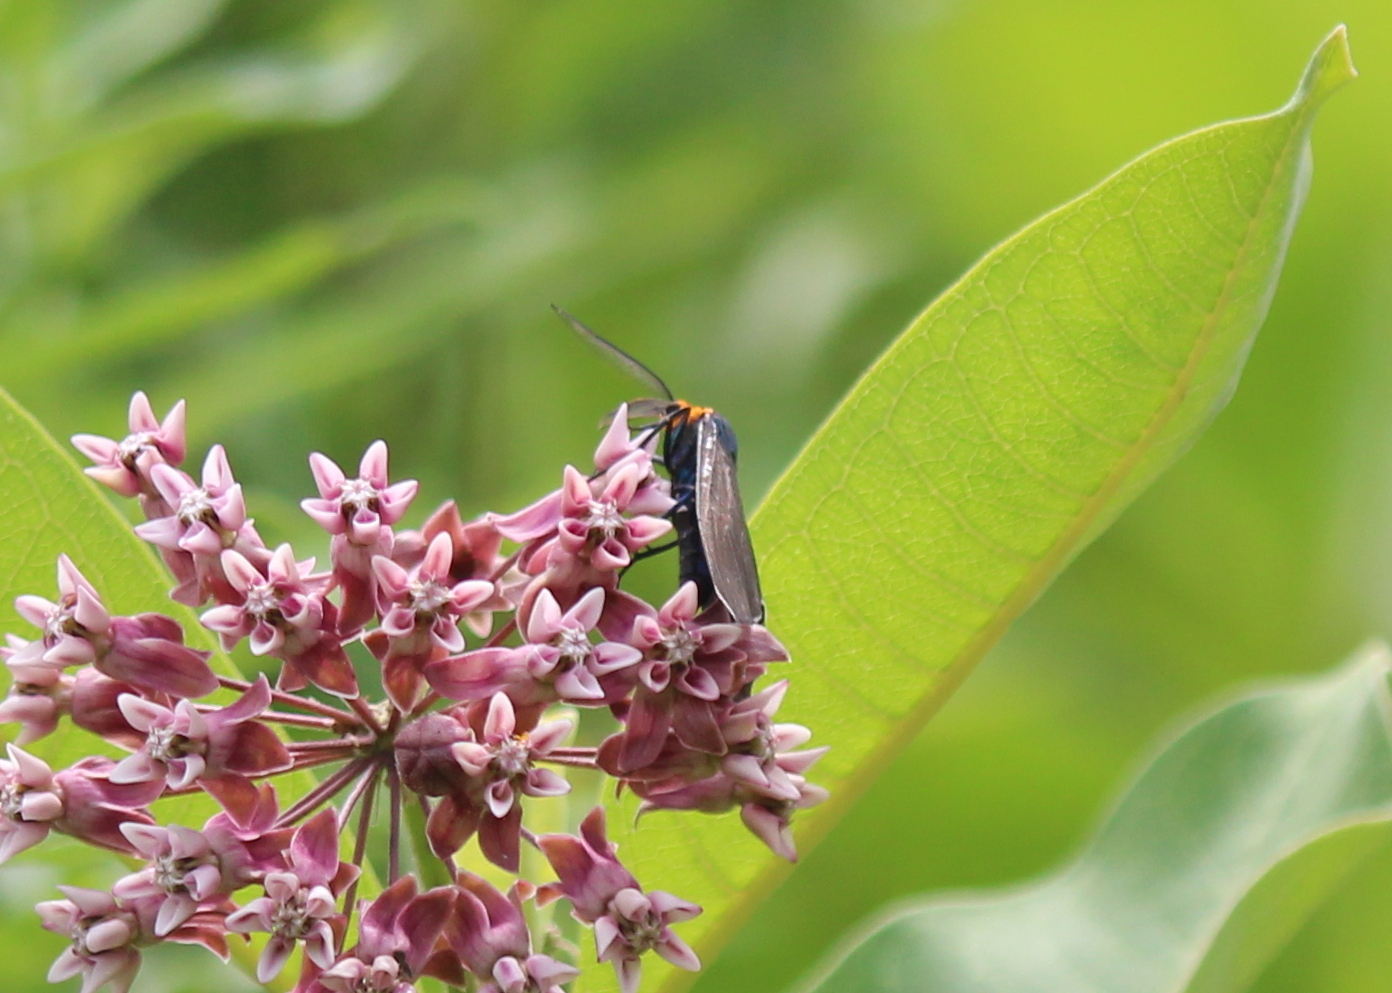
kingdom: Animalia
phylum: Arthropoda
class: Insecta
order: Lepidoptera
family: Erebidae
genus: Ctenucha
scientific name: Ctenucha virginica
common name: Virginia ctenucha moth
